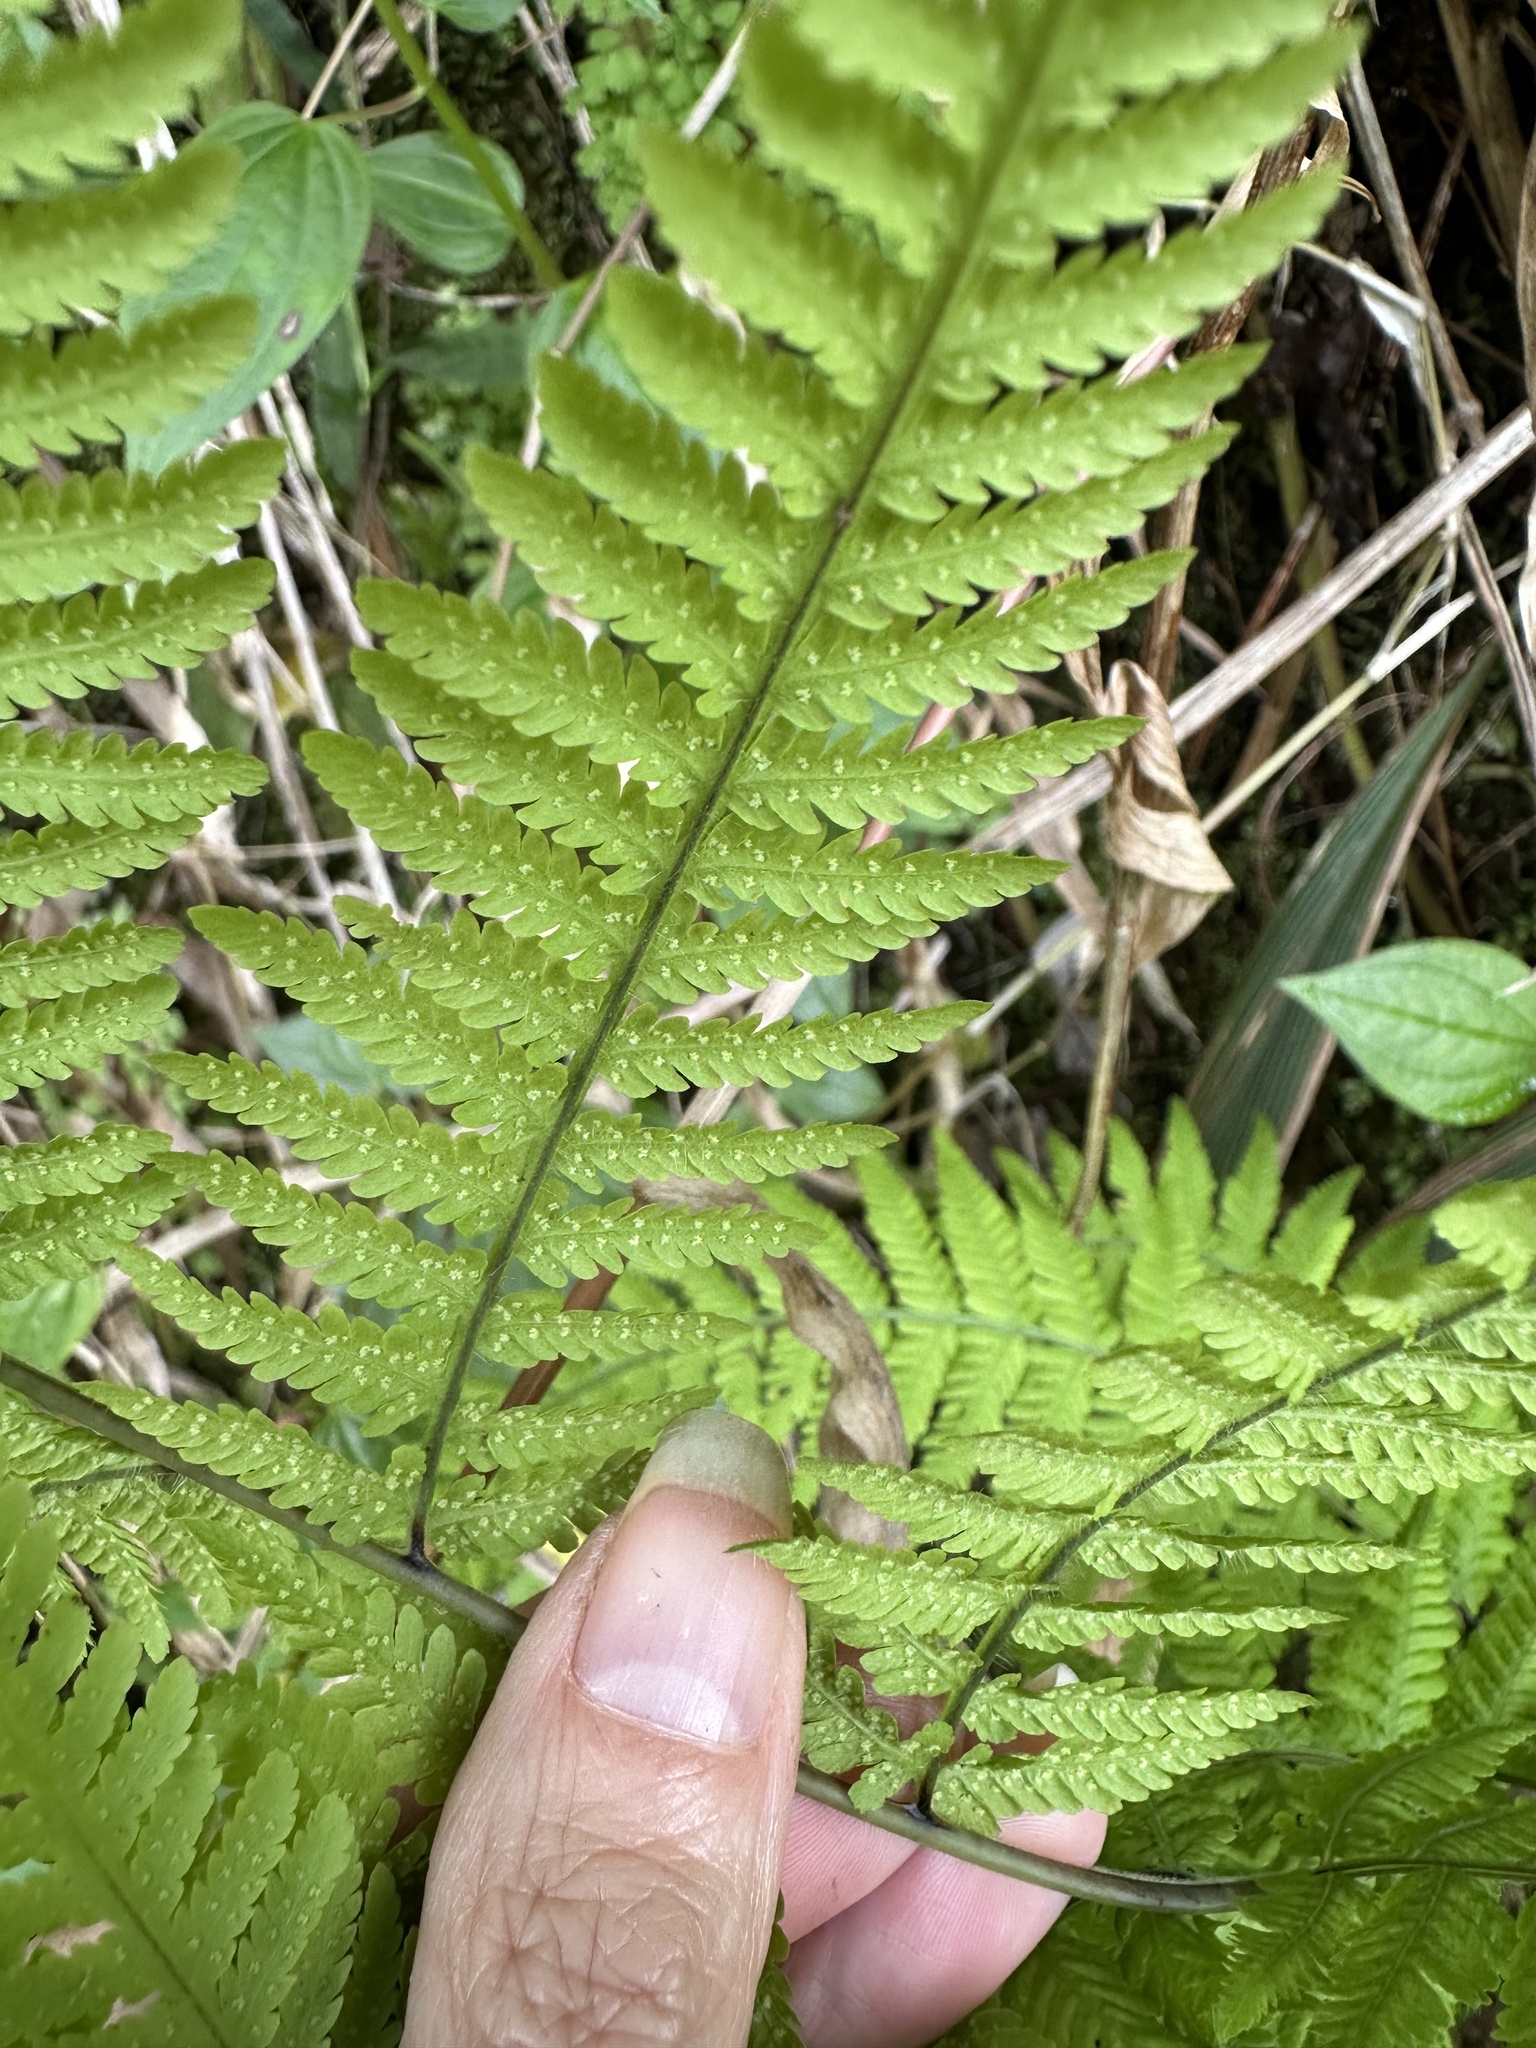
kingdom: Plantae
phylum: Tracheophyta
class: Polypodiopsida
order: Polypodiales
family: Thelypteridaceae
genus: Macrothelypteris
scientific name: Macrothelypteris torresiana
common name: Swordfern
